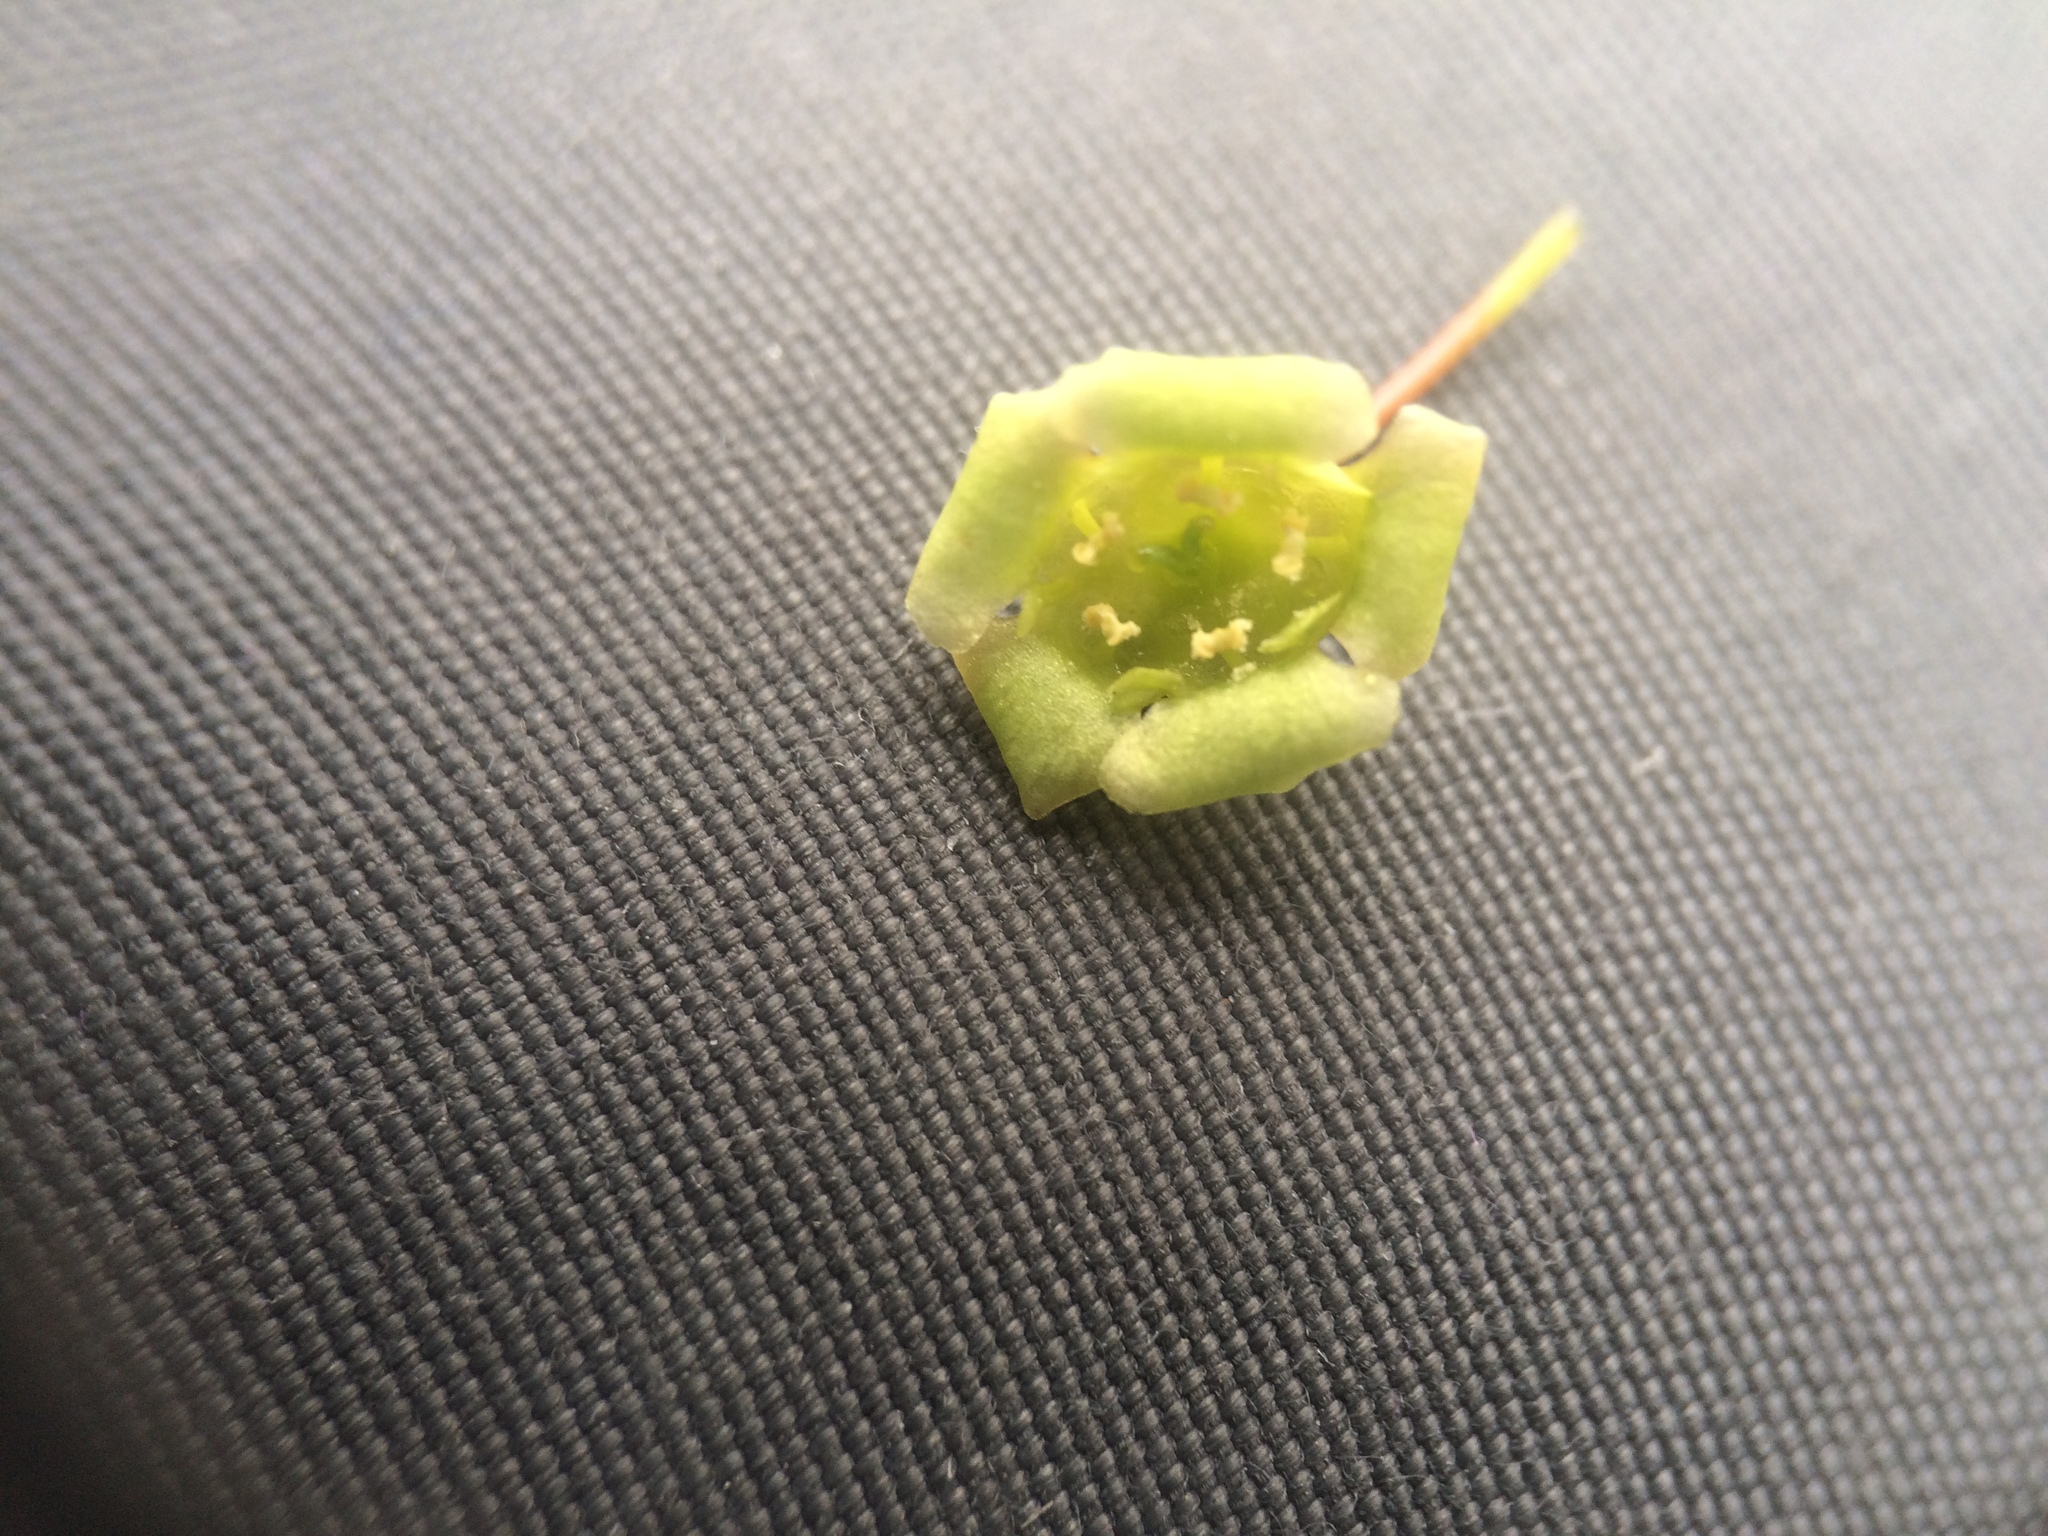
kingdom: Plantae
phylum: Tracheophyta
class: Magnoliopsida
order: Saxifragales
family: Grossulariaceae
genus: Ribes
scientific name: Ribes rubrum
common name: Red currant
